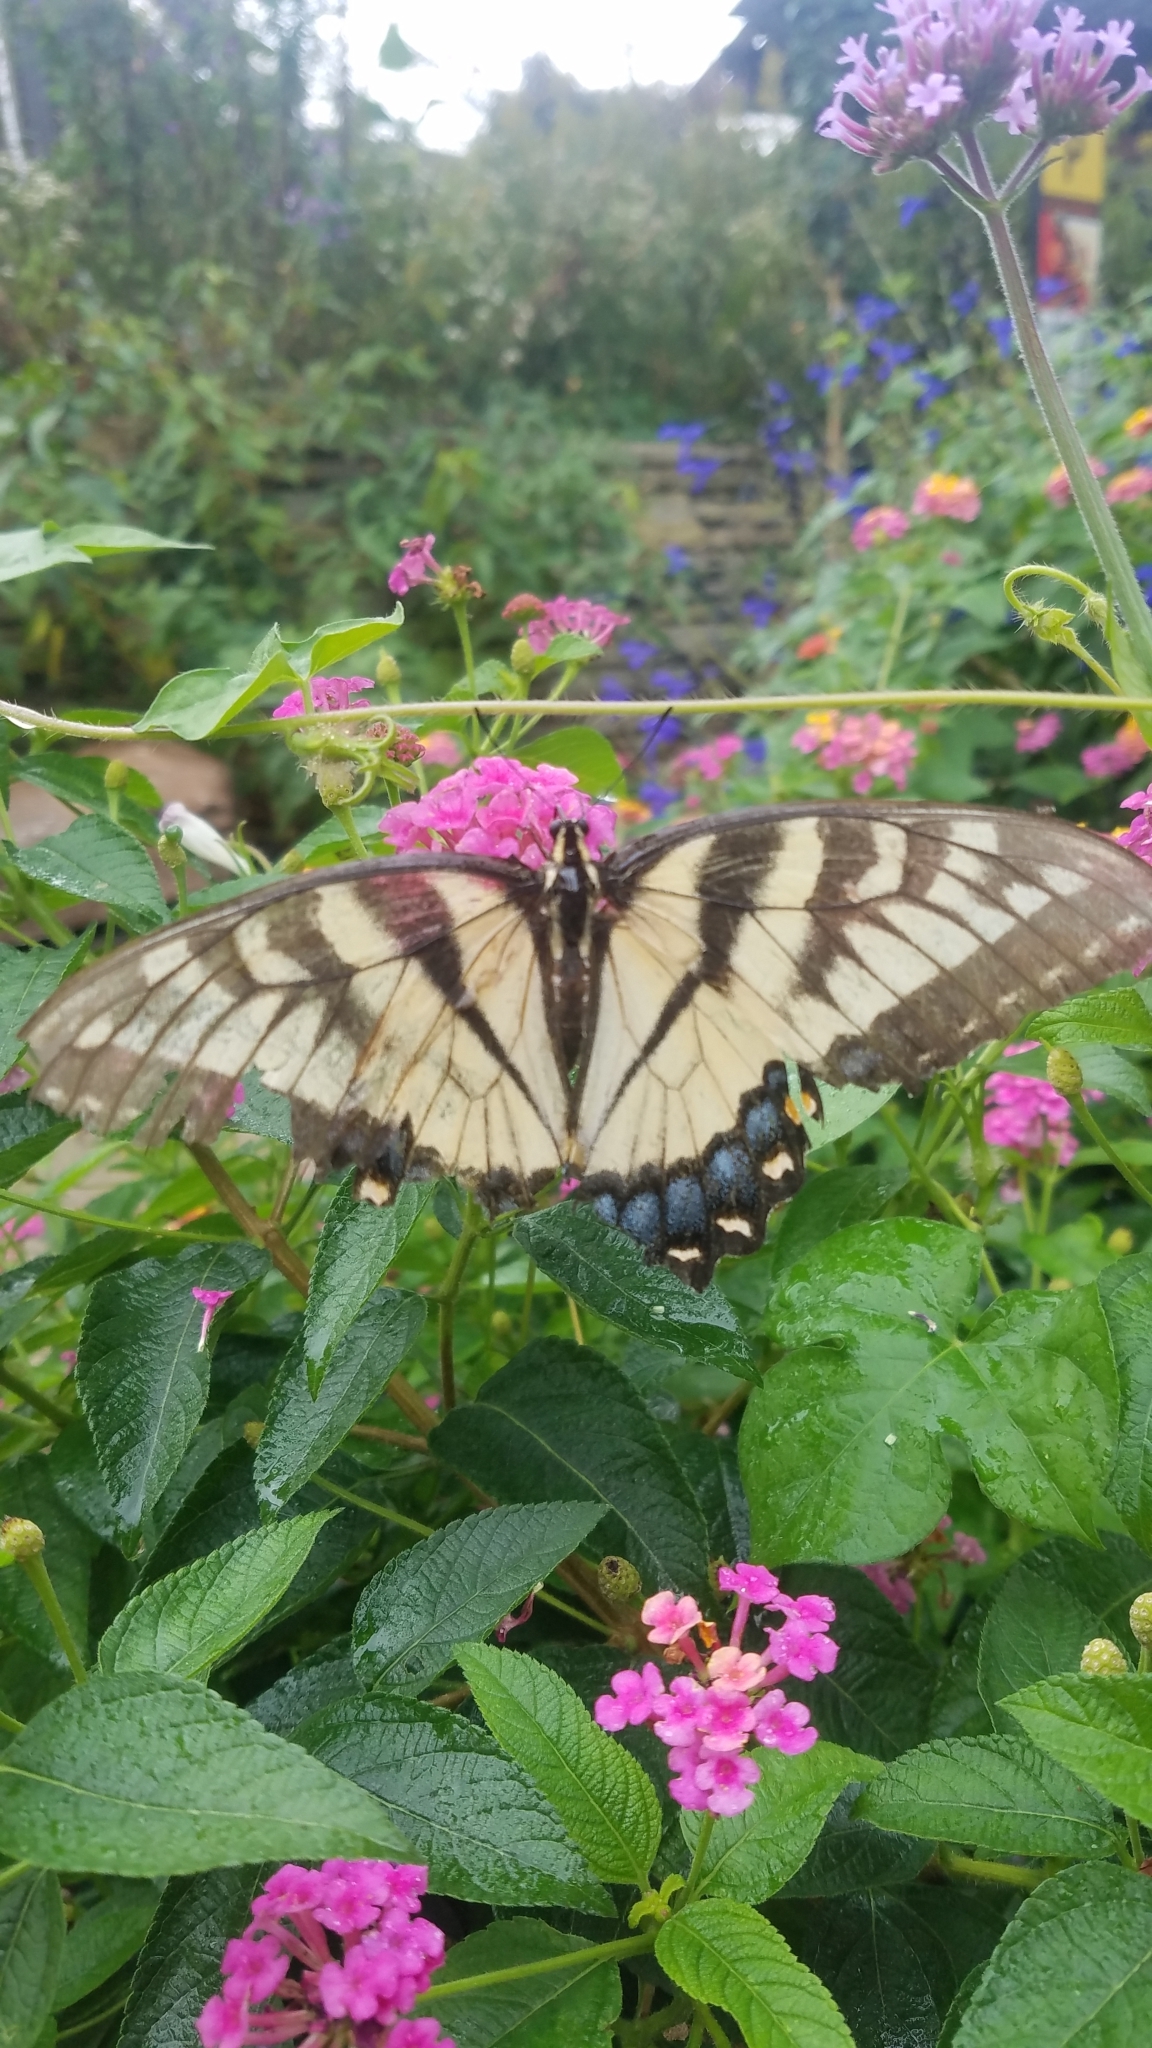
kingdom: Animalia
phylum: Arthropoda
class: Insecta
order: Lepidoptera
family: Papilionidae
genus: Papilio
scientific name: Papilio glaucus
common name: Tiger swallowtail
